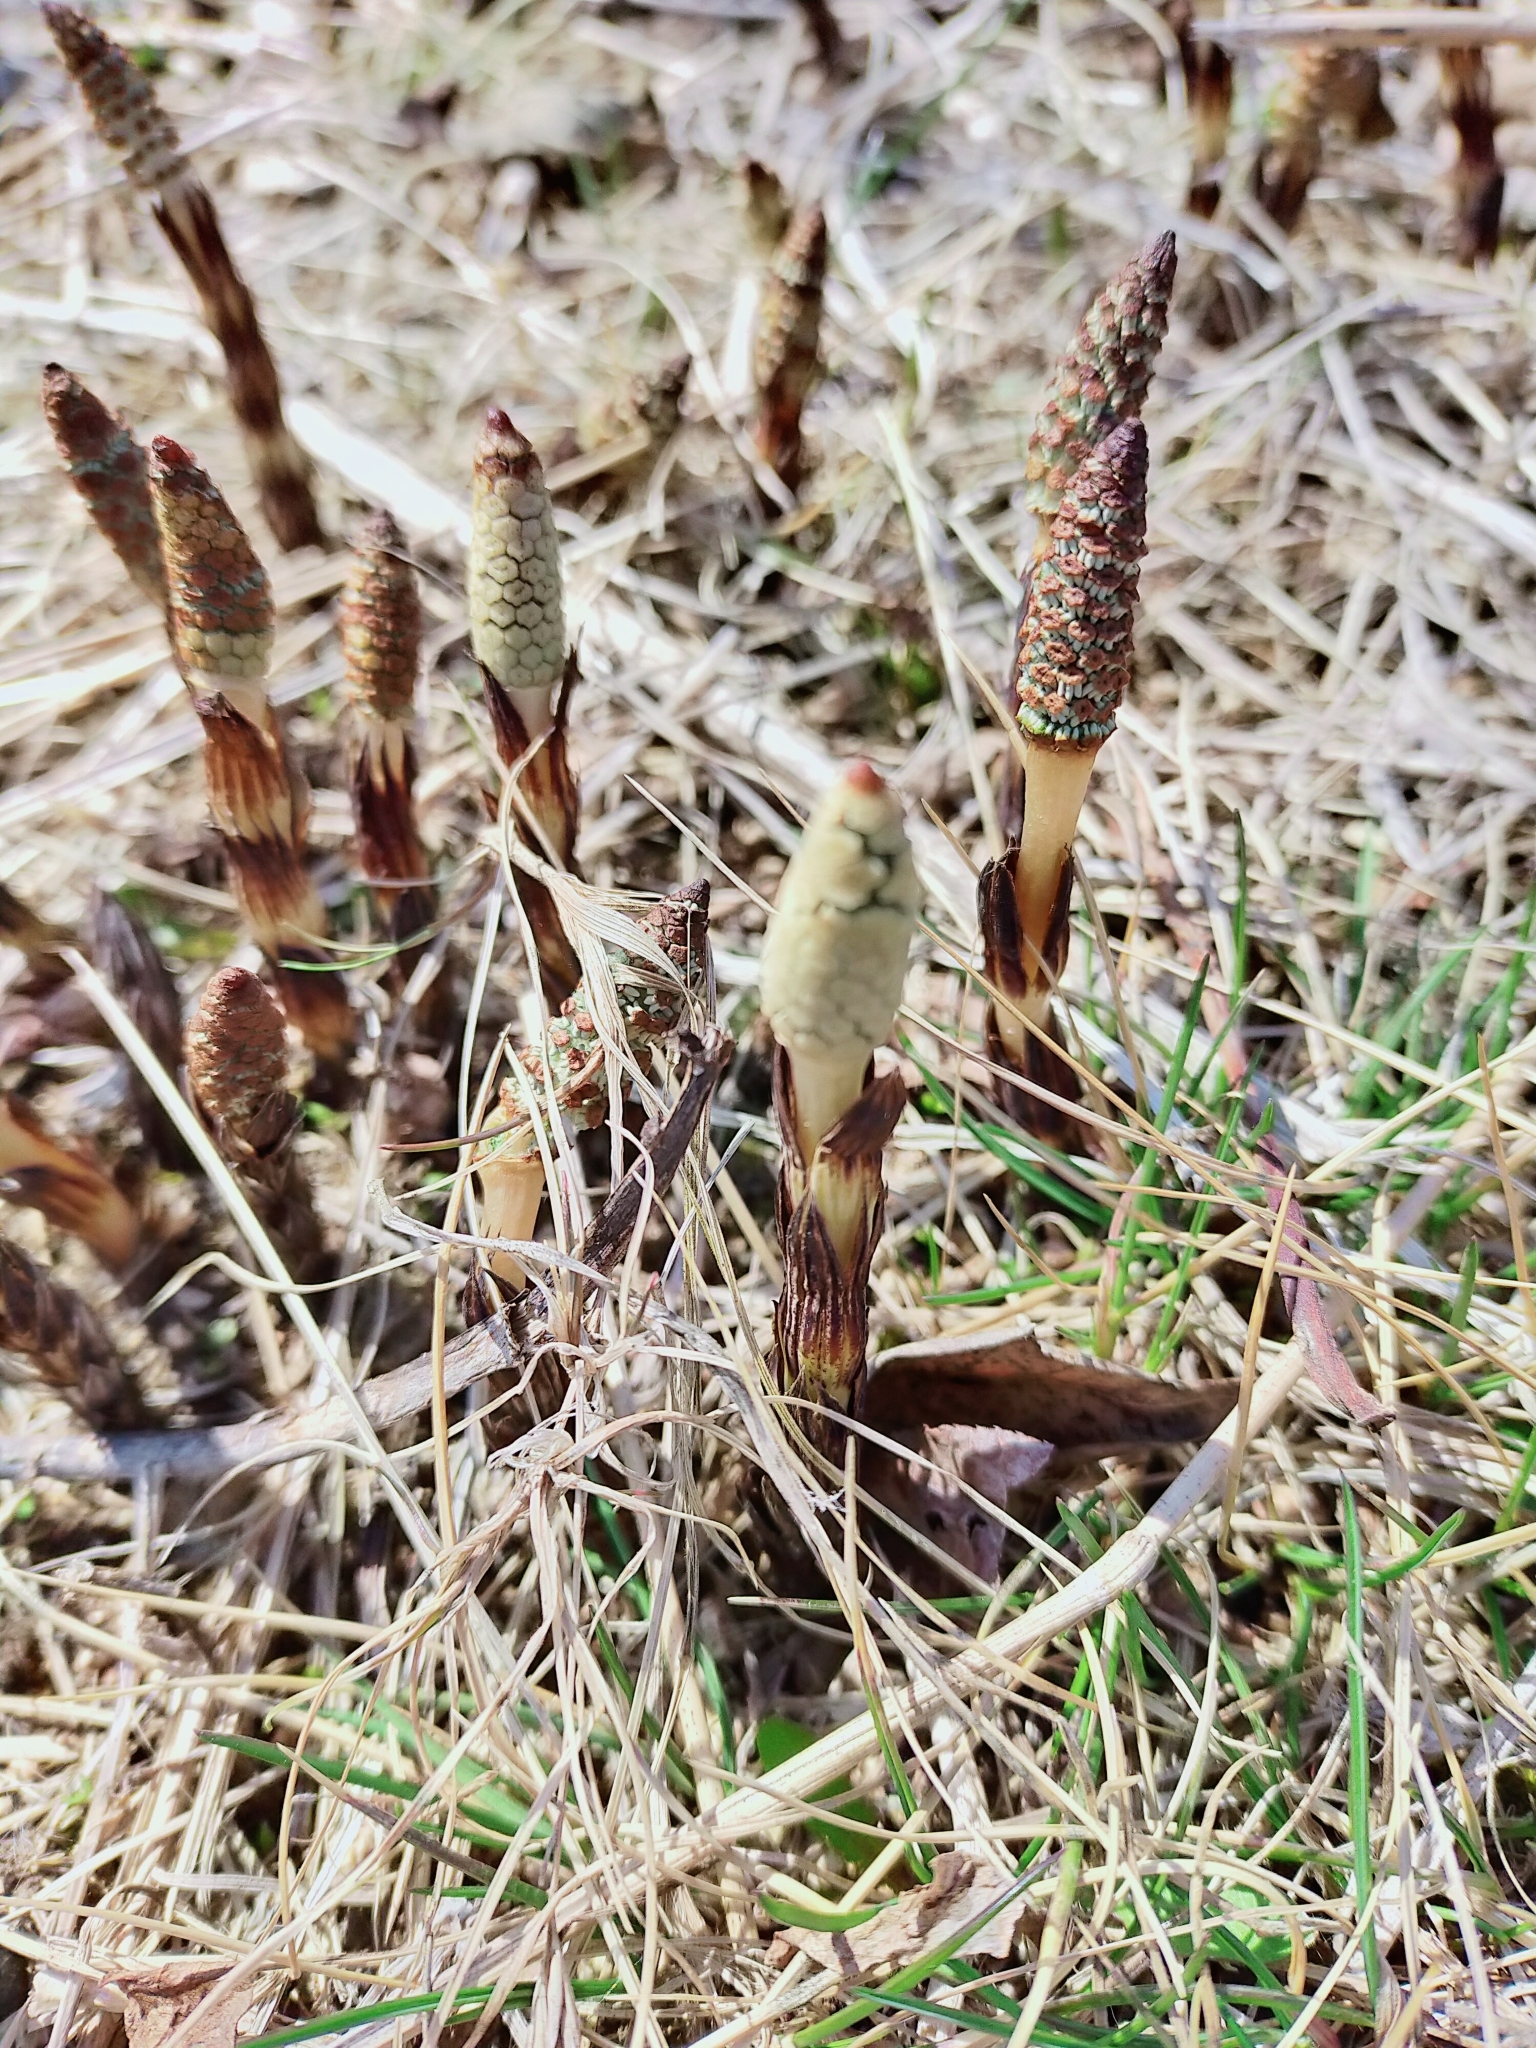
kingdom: Plantae
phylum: Tracheophyta
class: Polypodiopsida
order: Equisetales
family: Equisetaceae
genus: Equisetum
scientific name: Equisetum arvense
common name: Field horsetail
